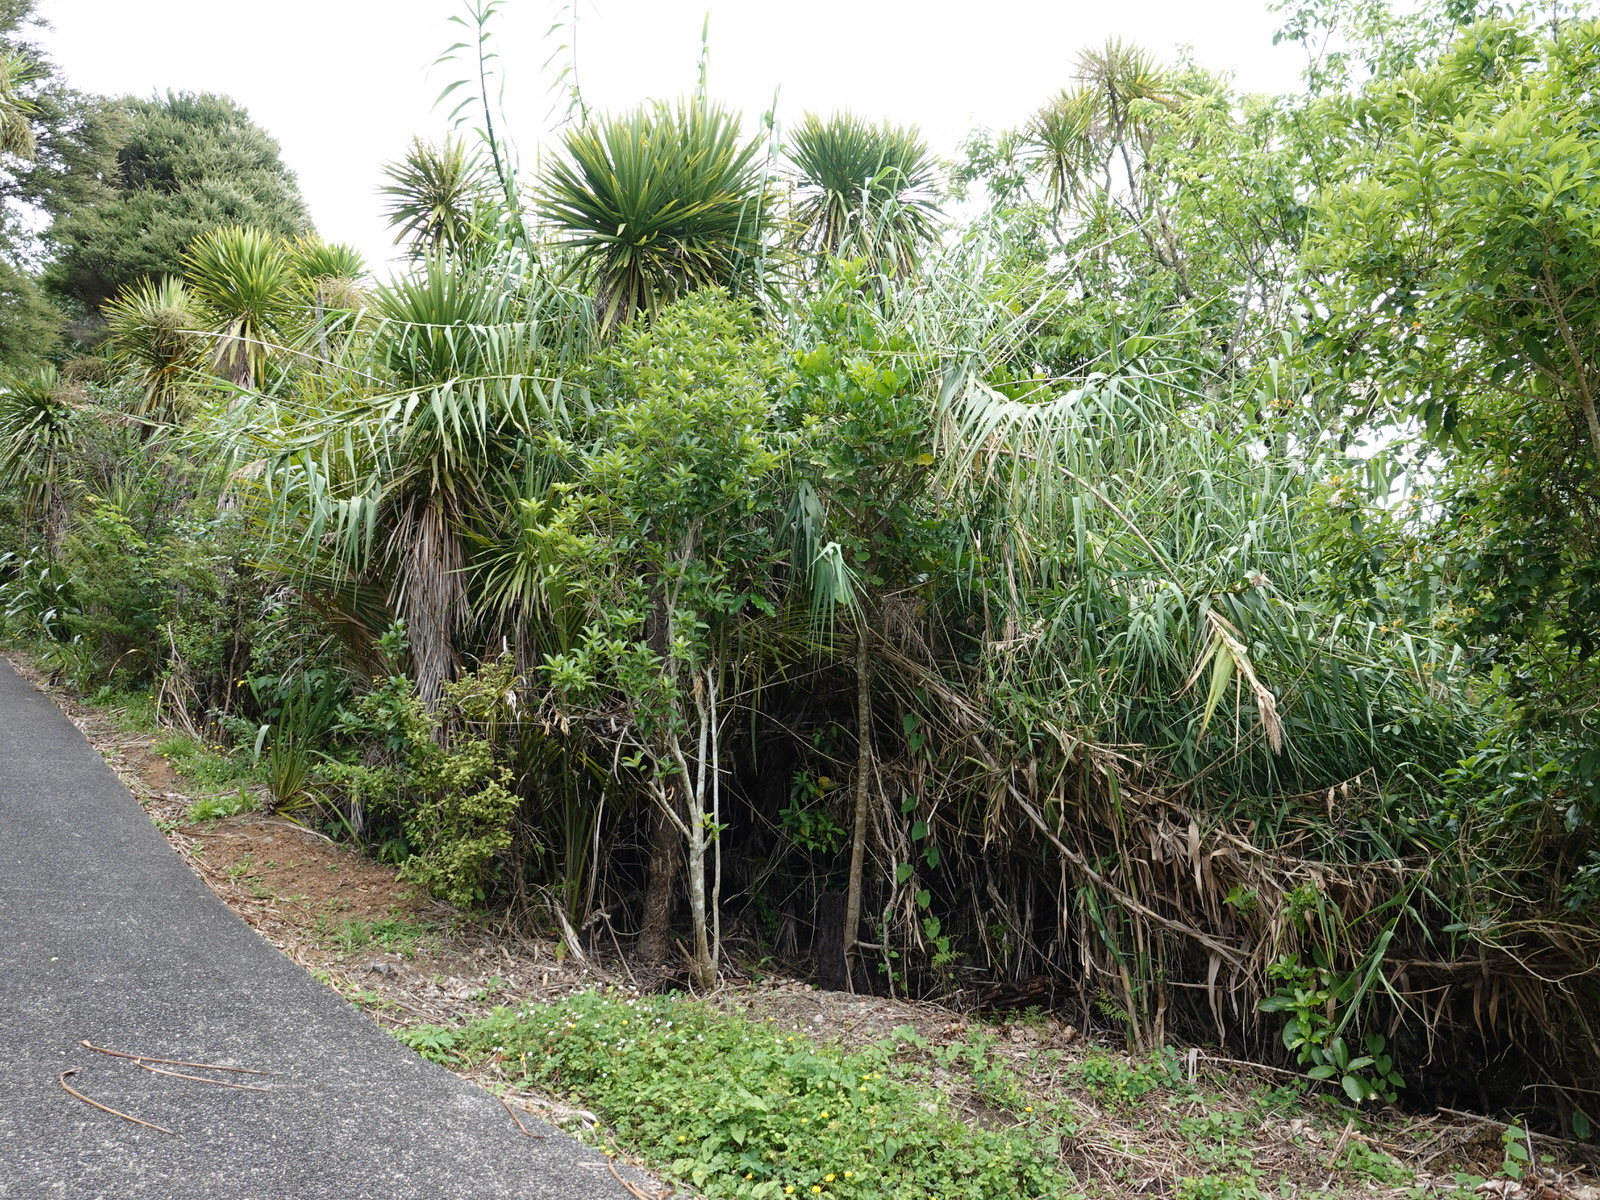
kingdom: Plantae
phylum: Tracheophyta
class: Liliopsida
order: Poales
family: Poaceae
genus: Arundo
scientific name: Arundo donax
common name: Giant reed
